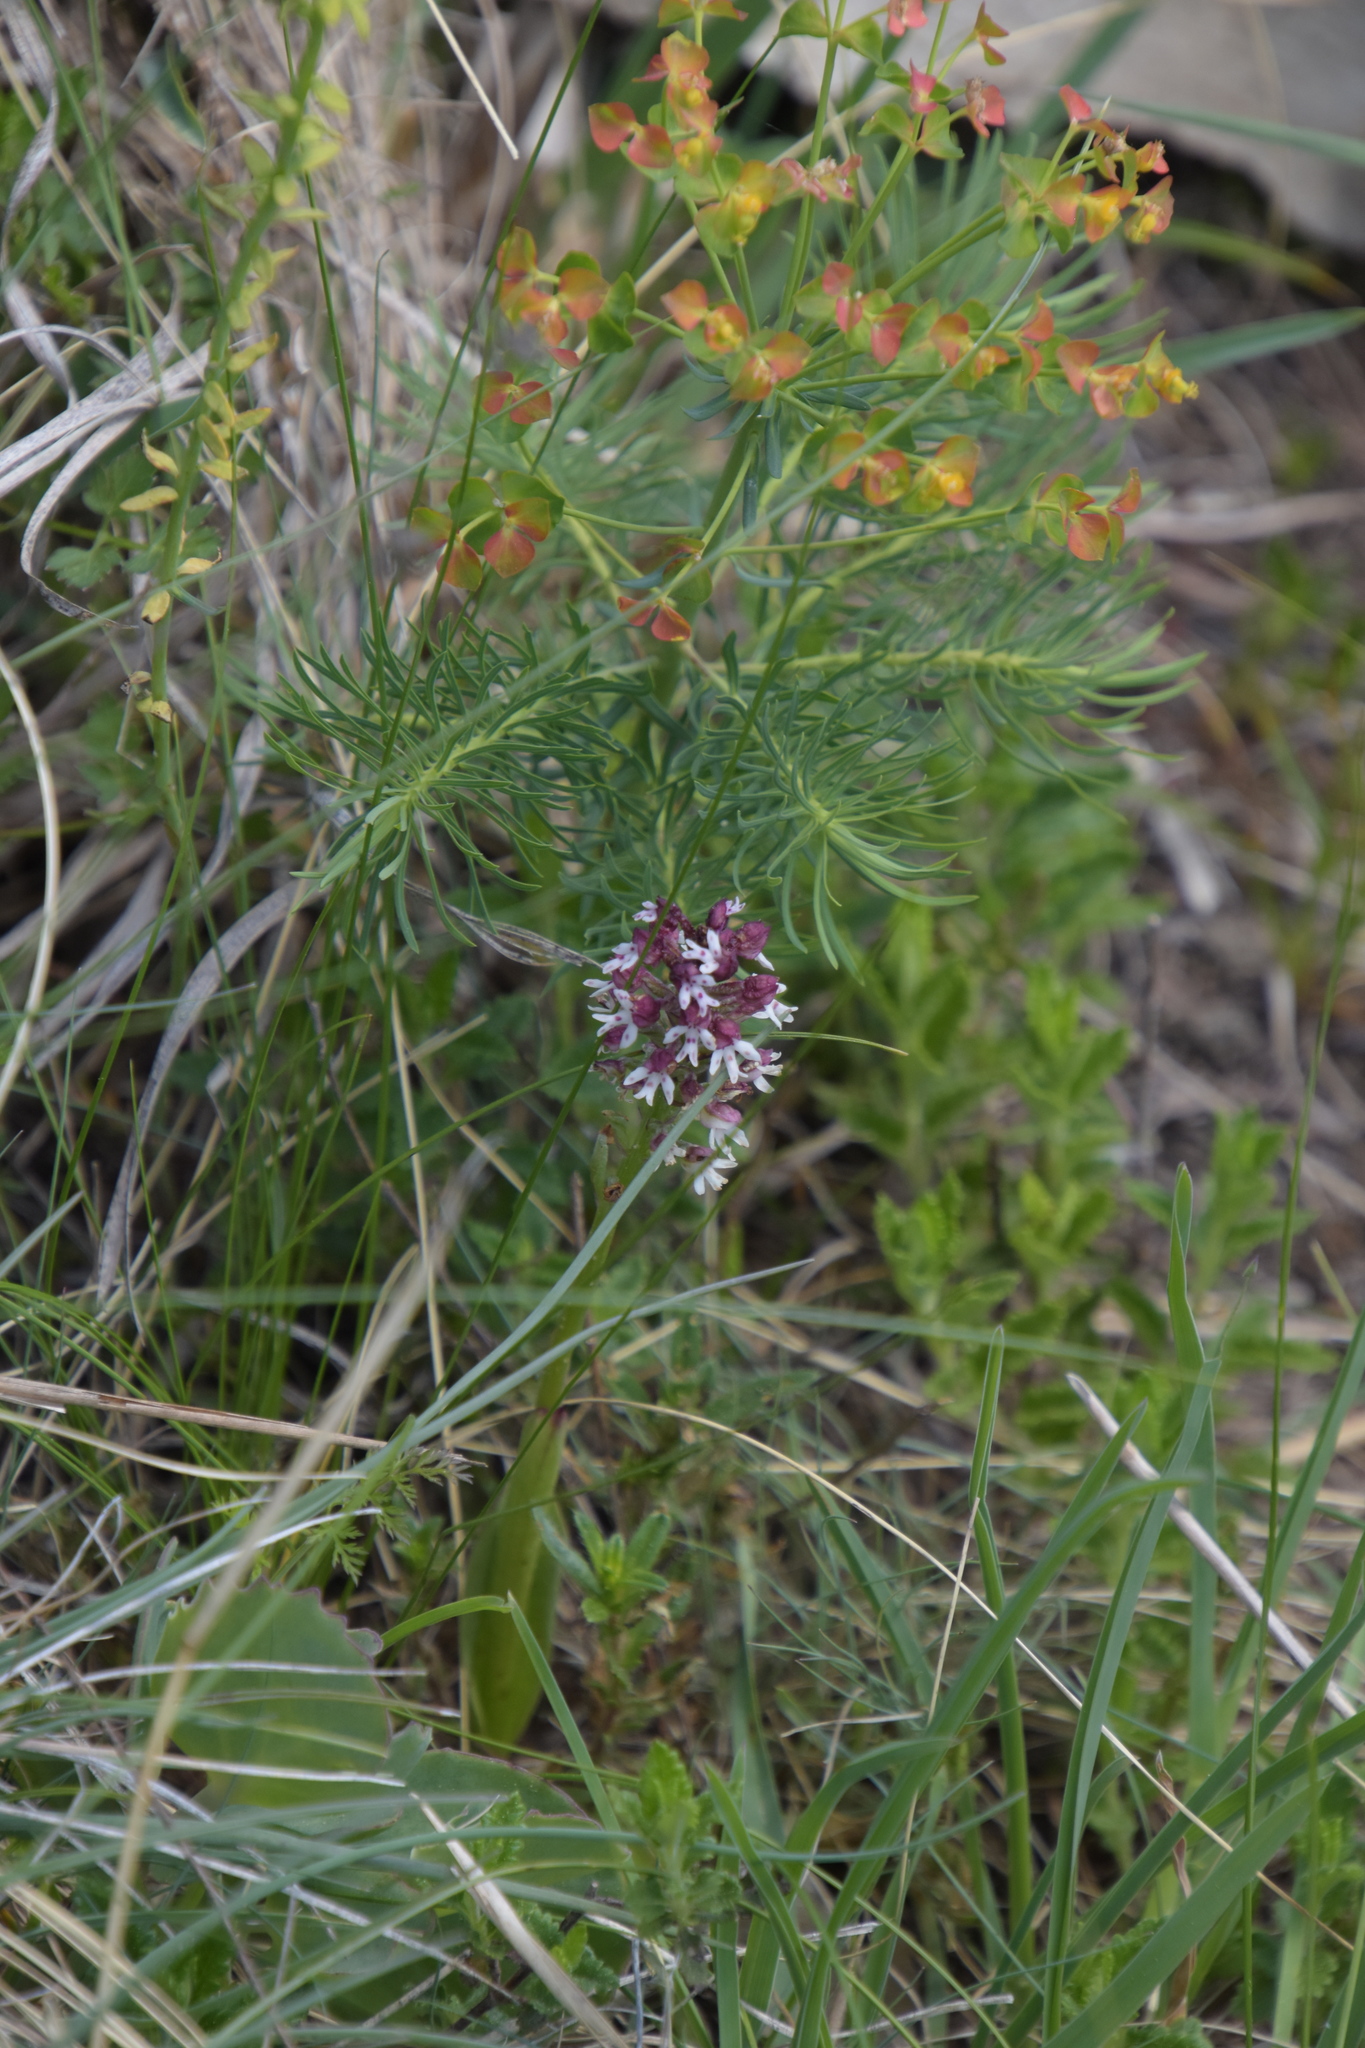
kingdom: Plantae
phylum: Tracheophyta
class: Liliopsida
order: Asparagales
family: Orchidaceae
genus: Neotinea
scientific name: Neotinea ustulata
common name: Burnt orchid
